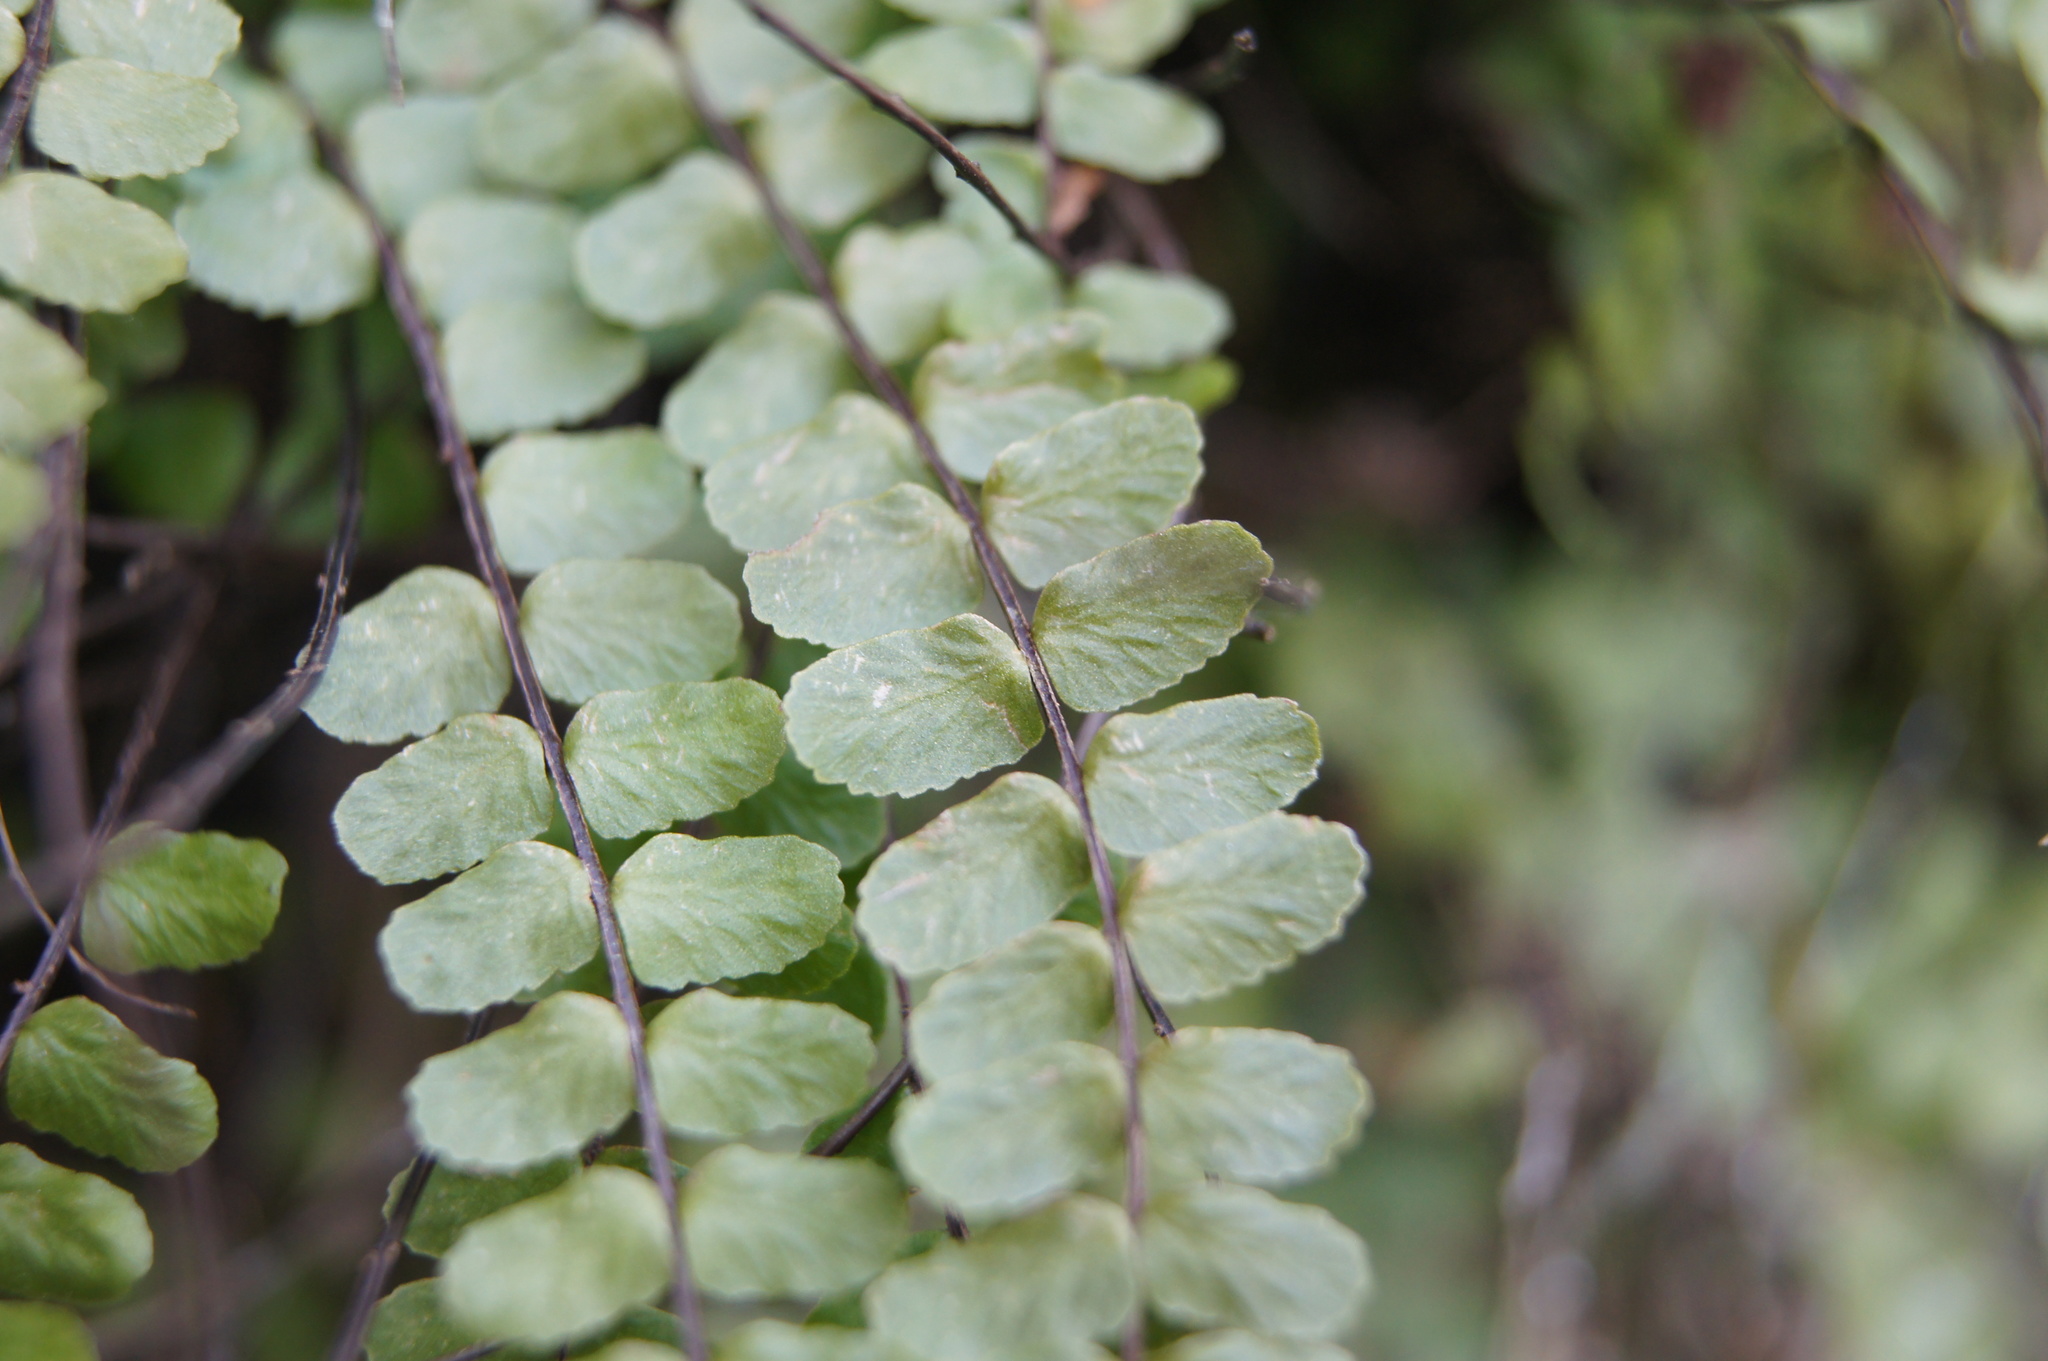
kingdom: Plantae
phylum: Tracheophyta
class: Polypodiopsida
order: Polypodiales
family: Aspleniaceae
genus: Asplenium
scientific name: Asplenium trichomanes
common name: Maidenhair spleenwort
